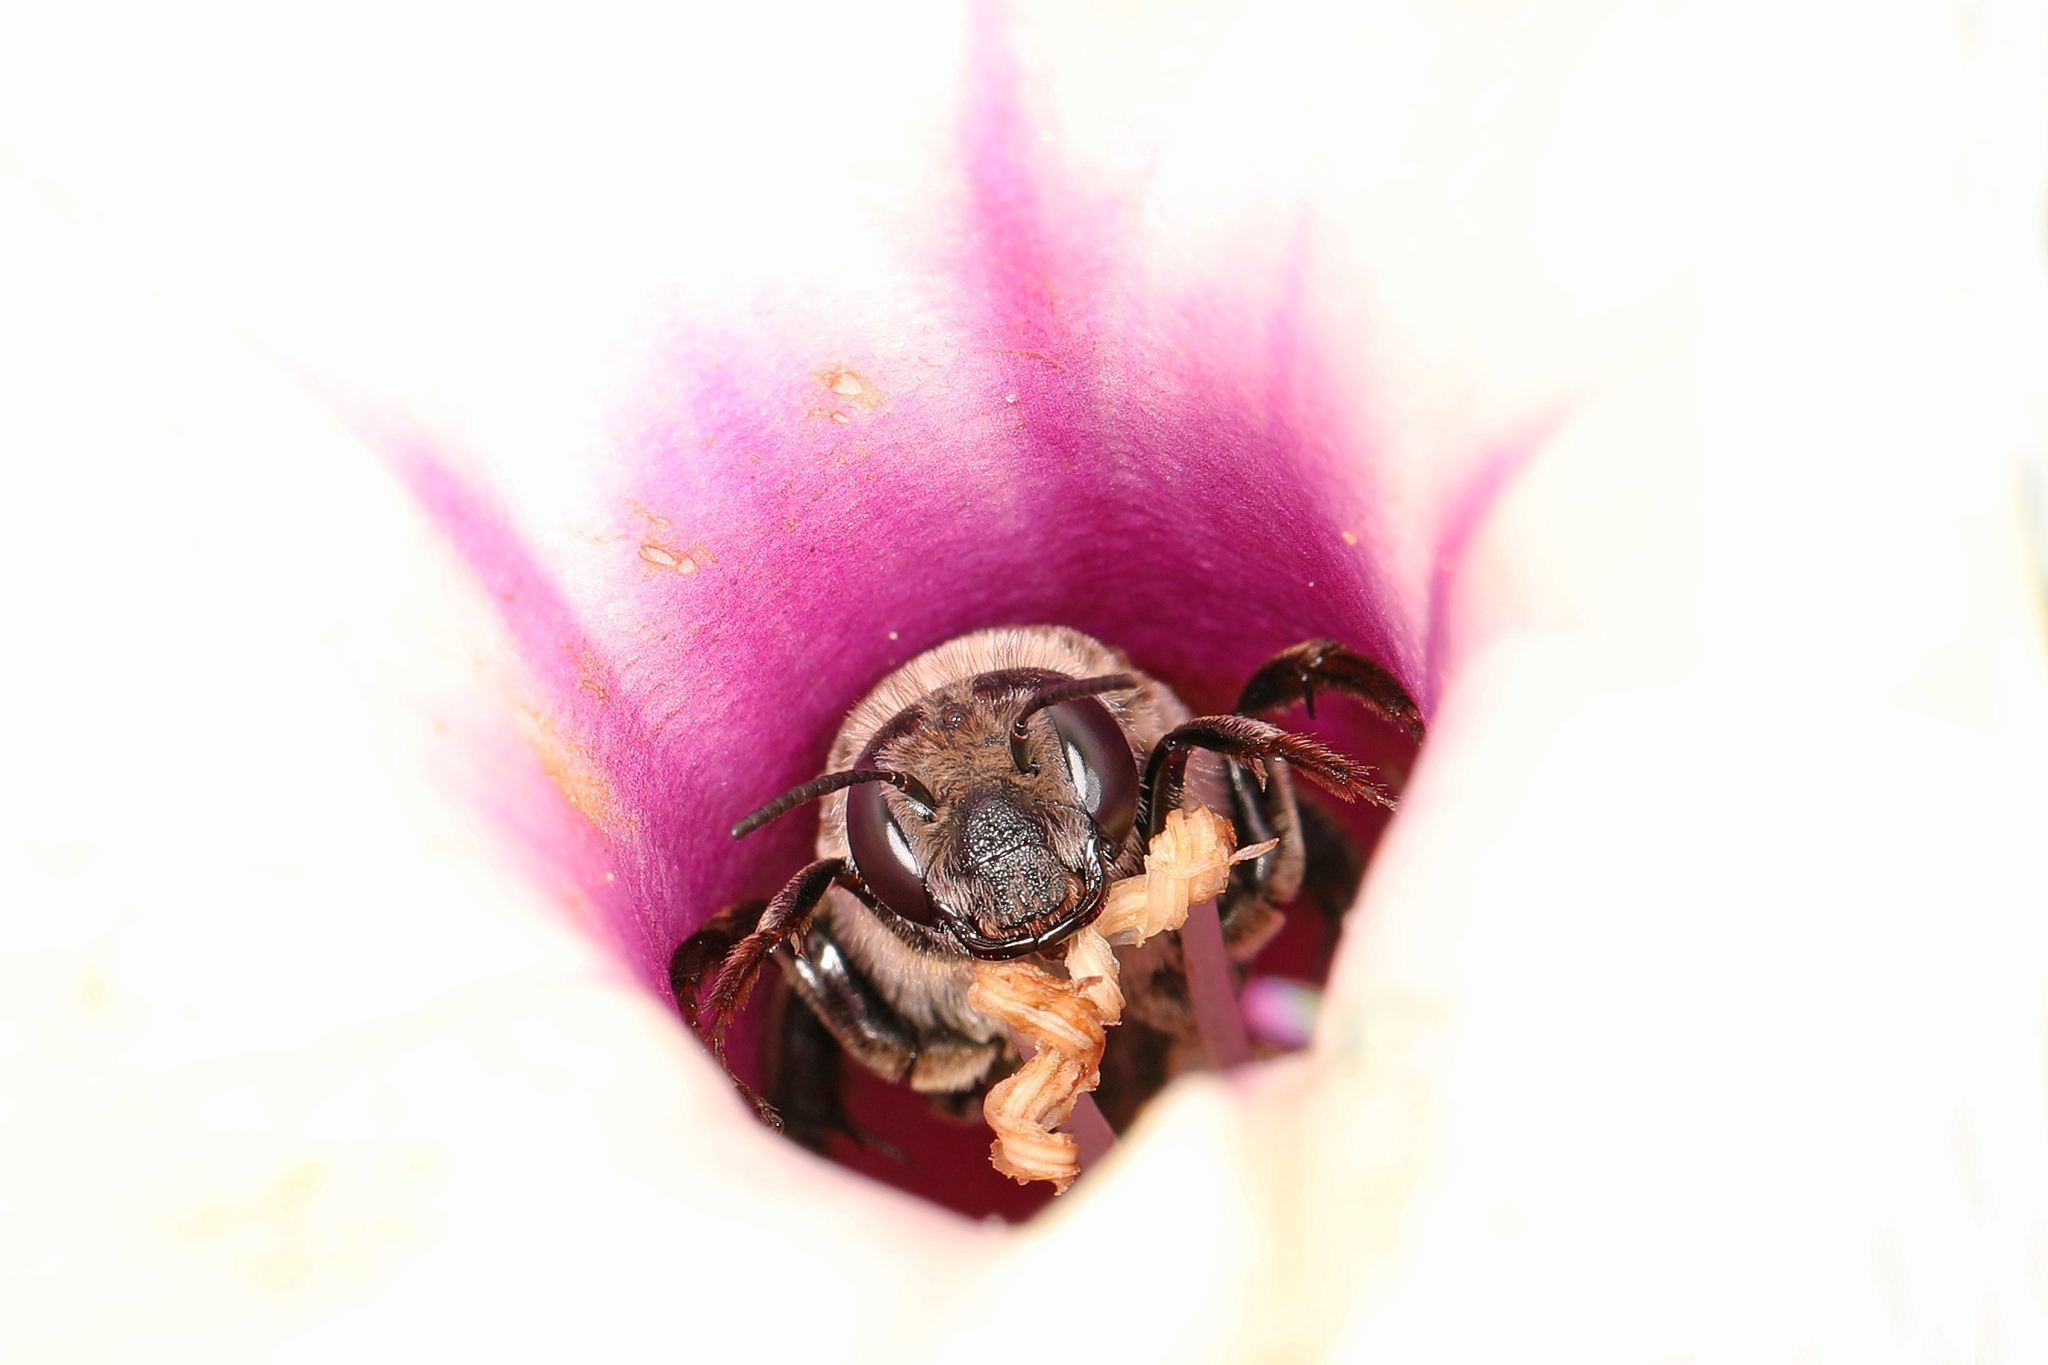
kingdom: Animalia
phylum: Arthropoda
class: Insecta
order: Hymenoptera
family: Apidae
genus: Melitoma
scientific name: Melitoma taurea
